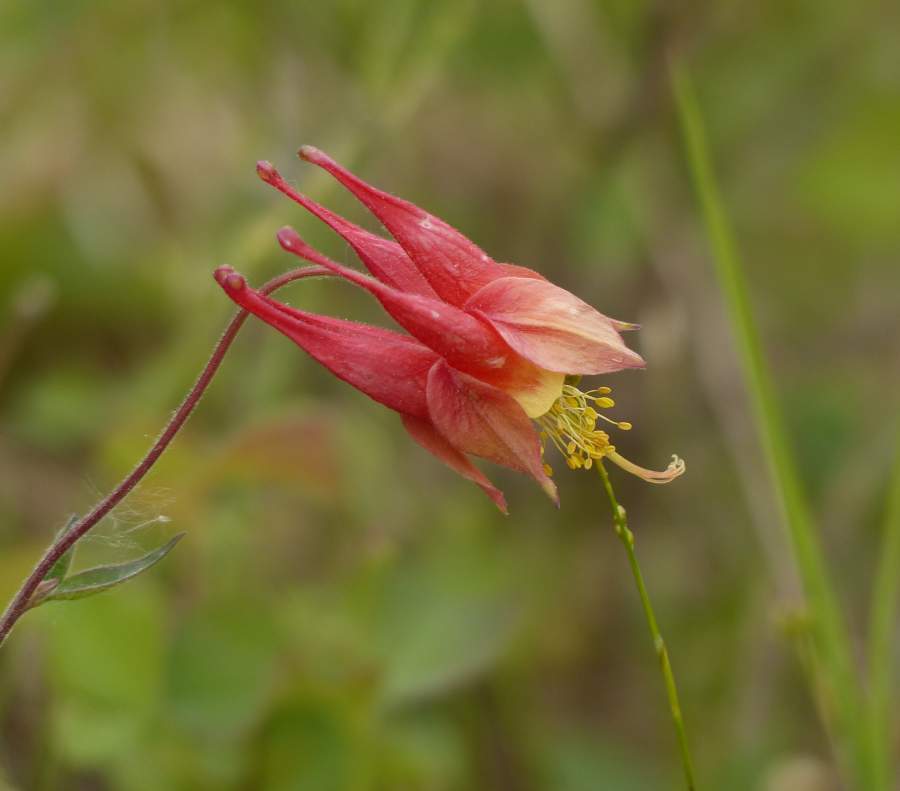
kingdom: Plantae
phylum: Tracheophyta
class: Magnoliopsida
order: Ranunculales
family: Ranunculaceae
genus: Aquilegia
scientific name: Aquilegia canadensis
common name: American columbine
